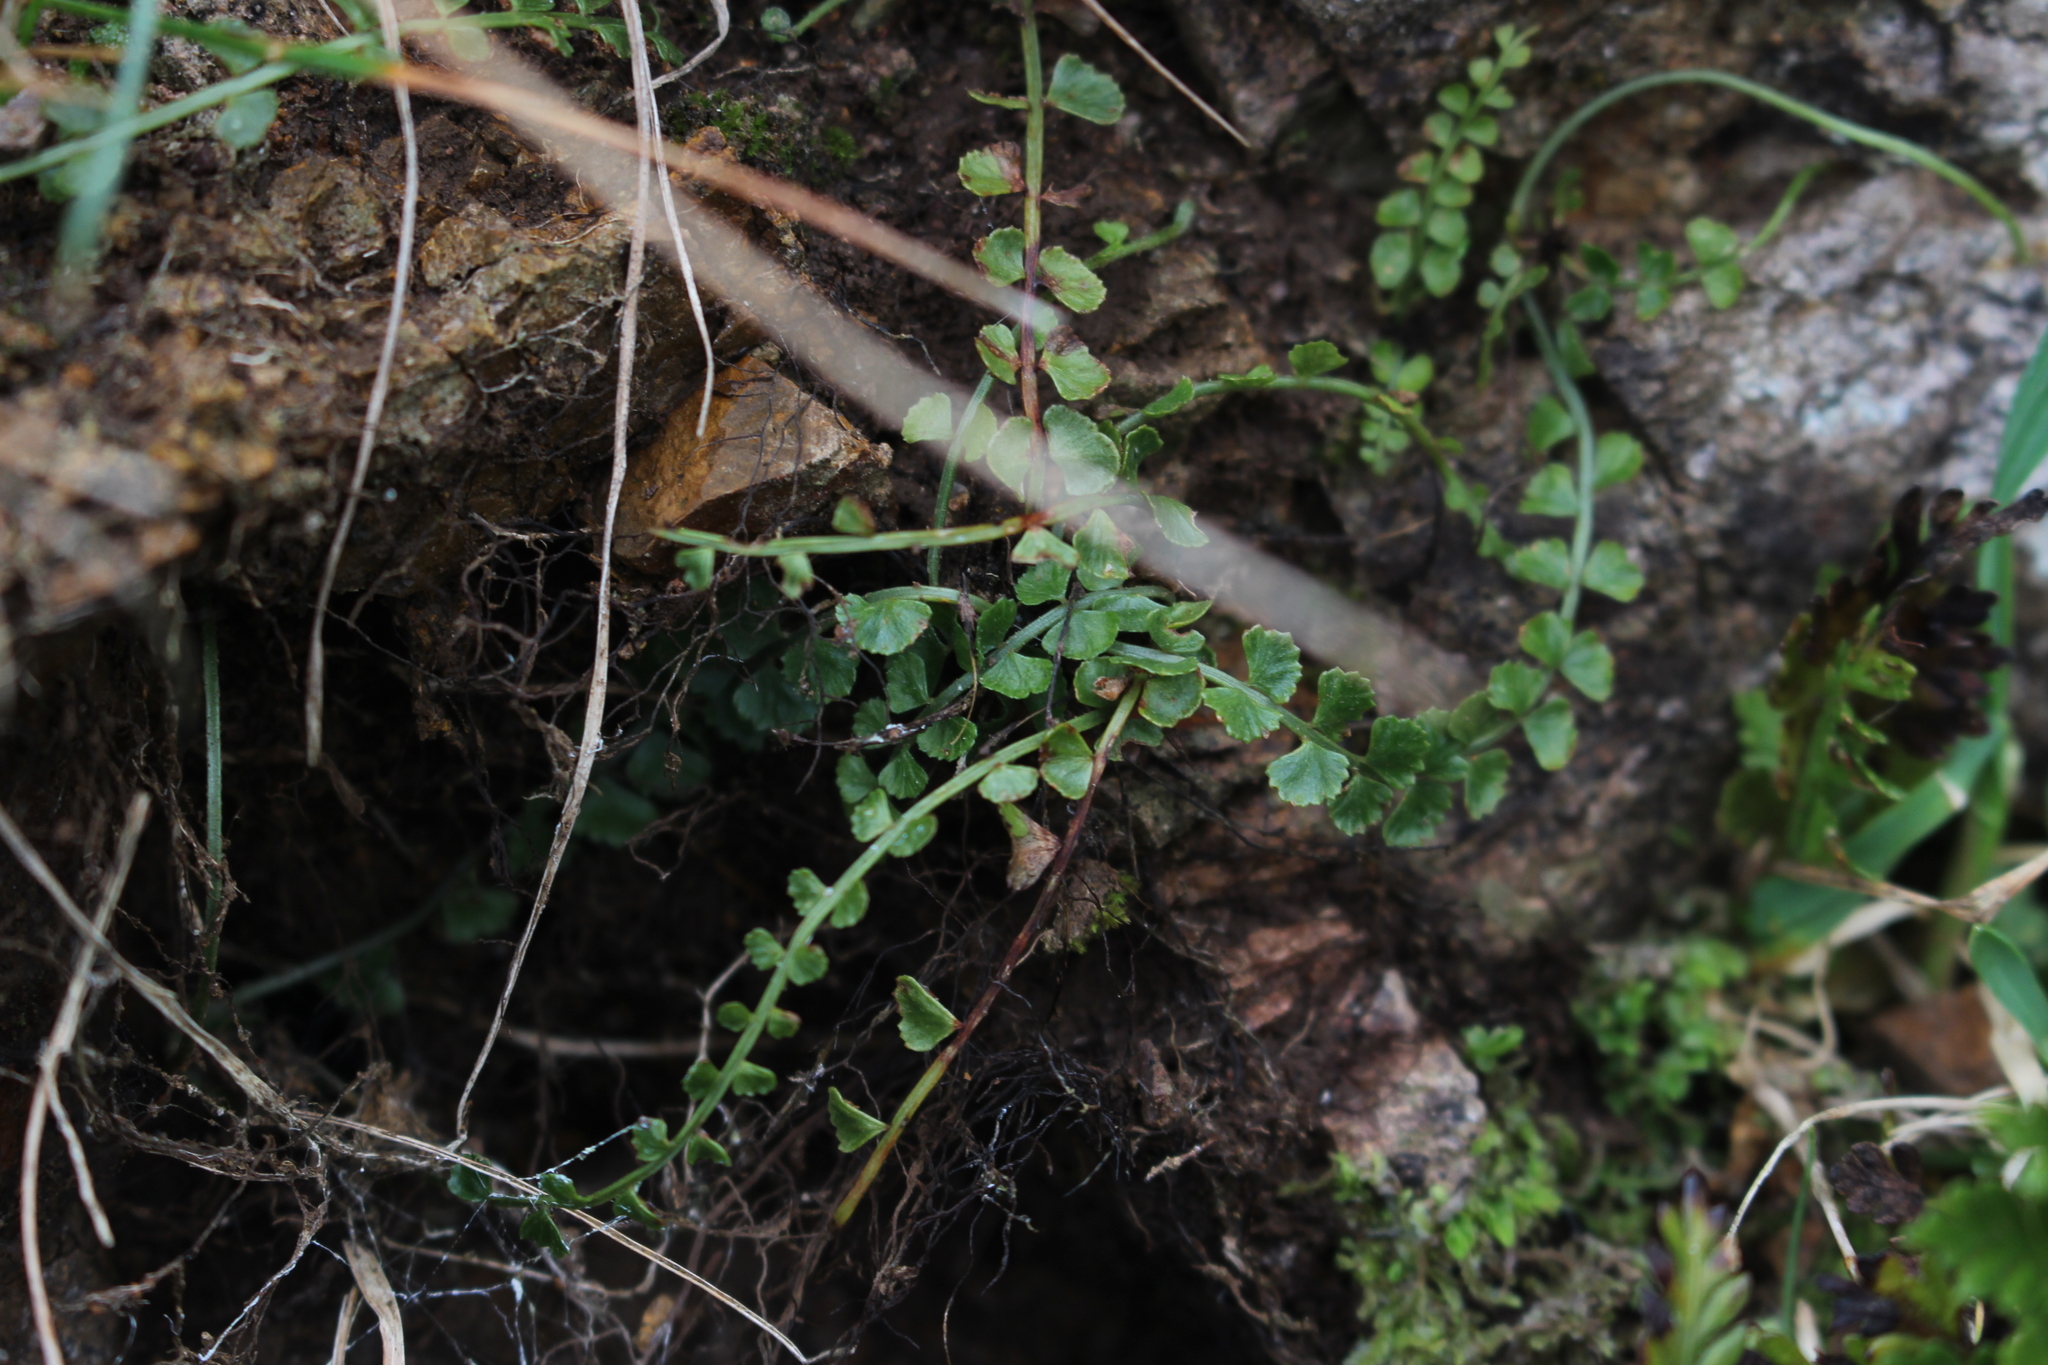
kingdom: Plantae
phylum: Tracheophyta
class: Polypodiopsida
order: Polypodiales
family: Aspleniaceae
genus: Asplenium
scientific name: Asplenium flabellifolium
